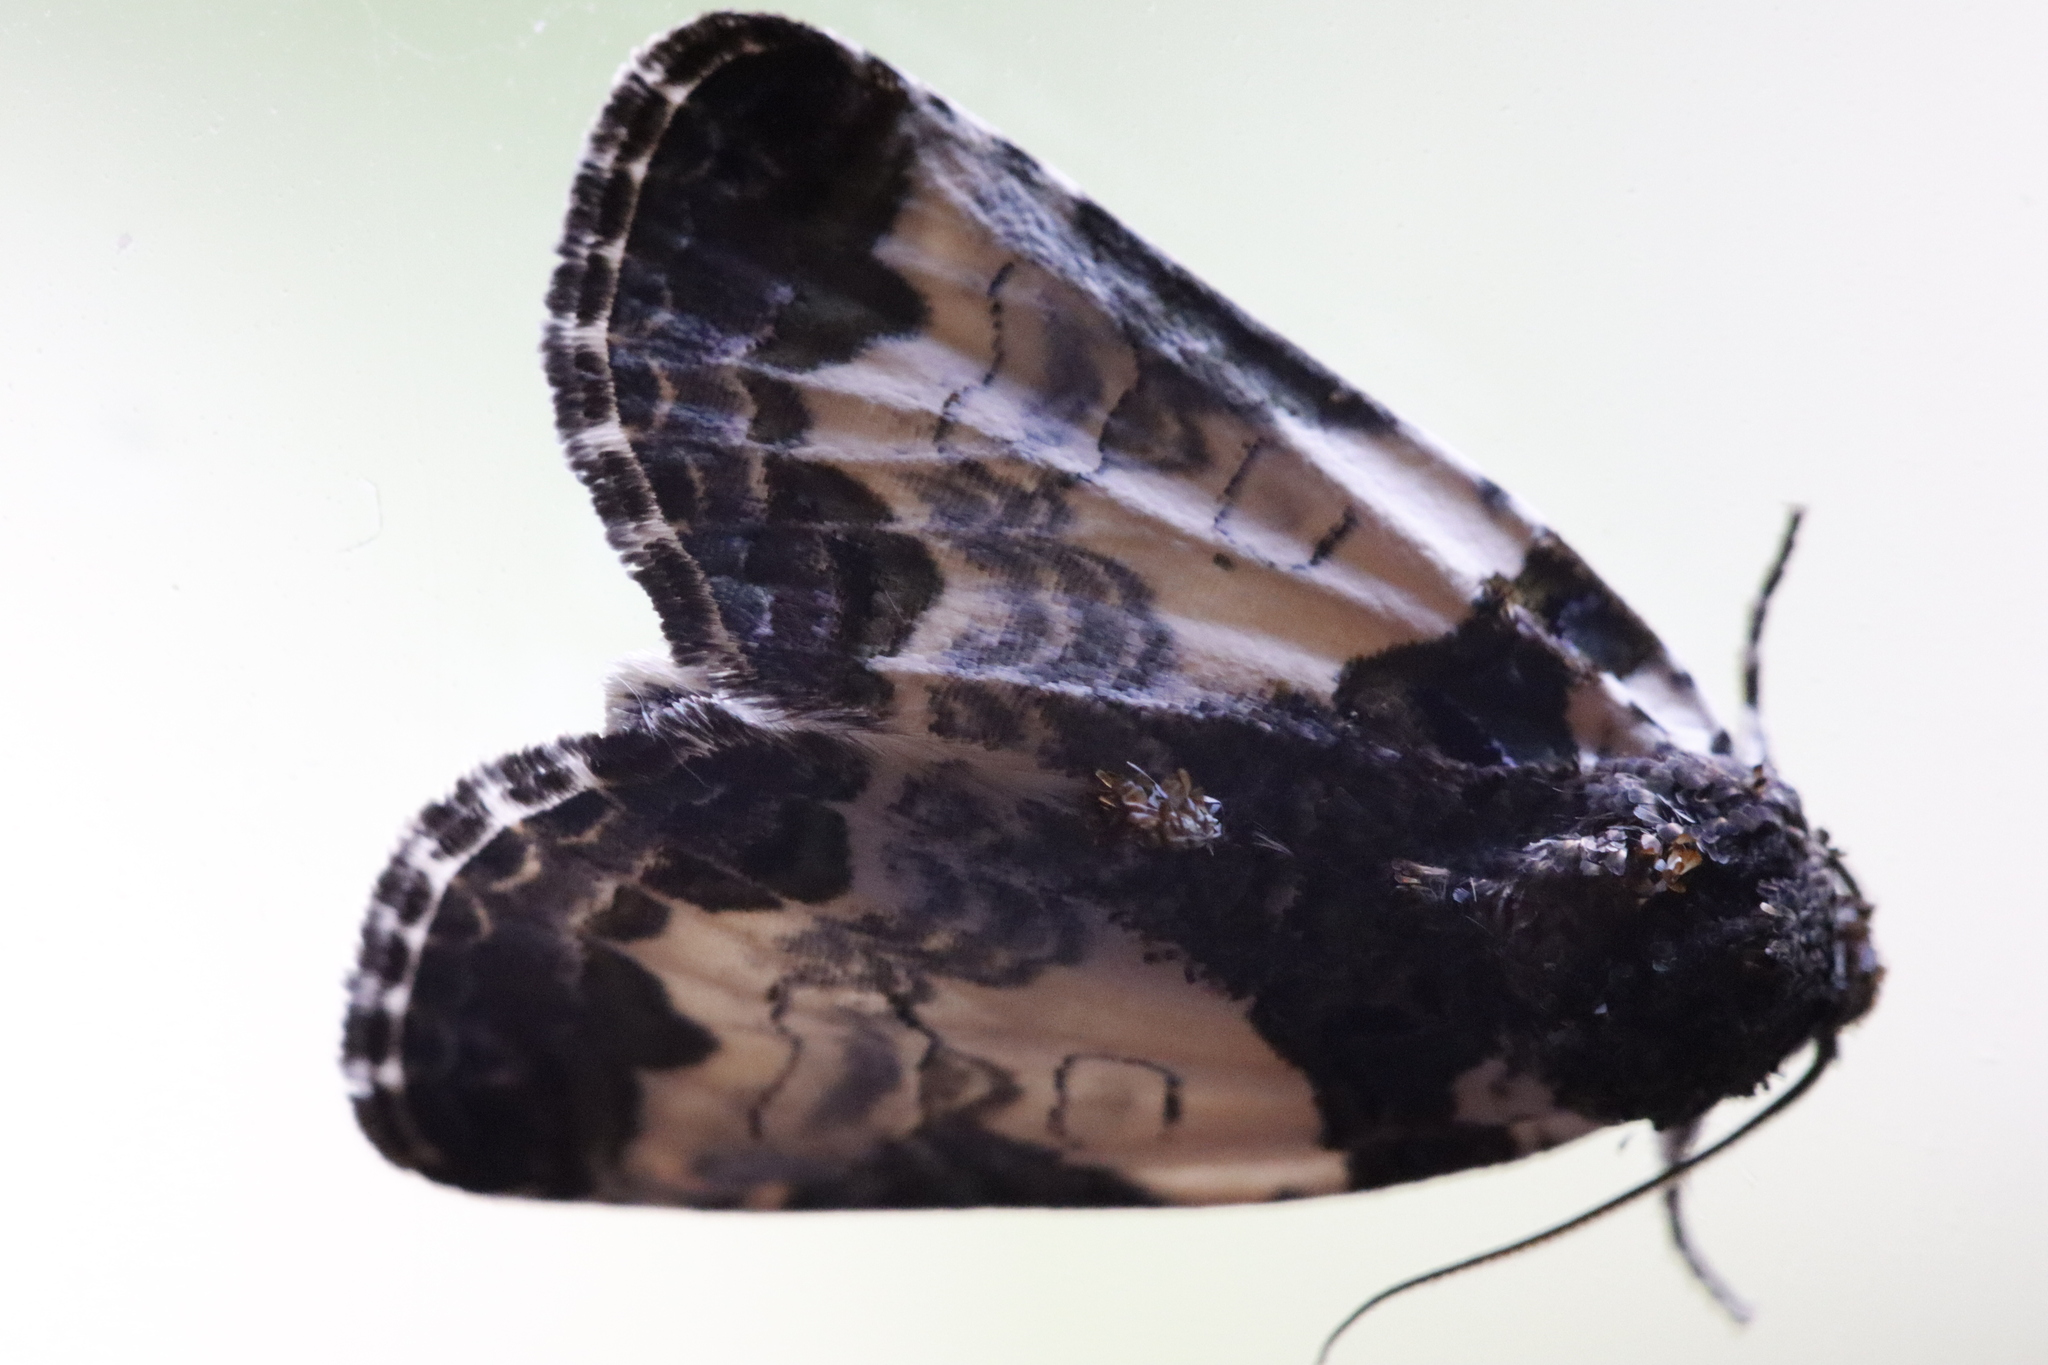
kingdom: Animalia
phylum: Arthropoda
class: Insecta
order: Lepidoptera
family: Noctuidae
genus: Cerma
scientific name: Cerma cerintha
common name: Tufted bird-dropping moth
